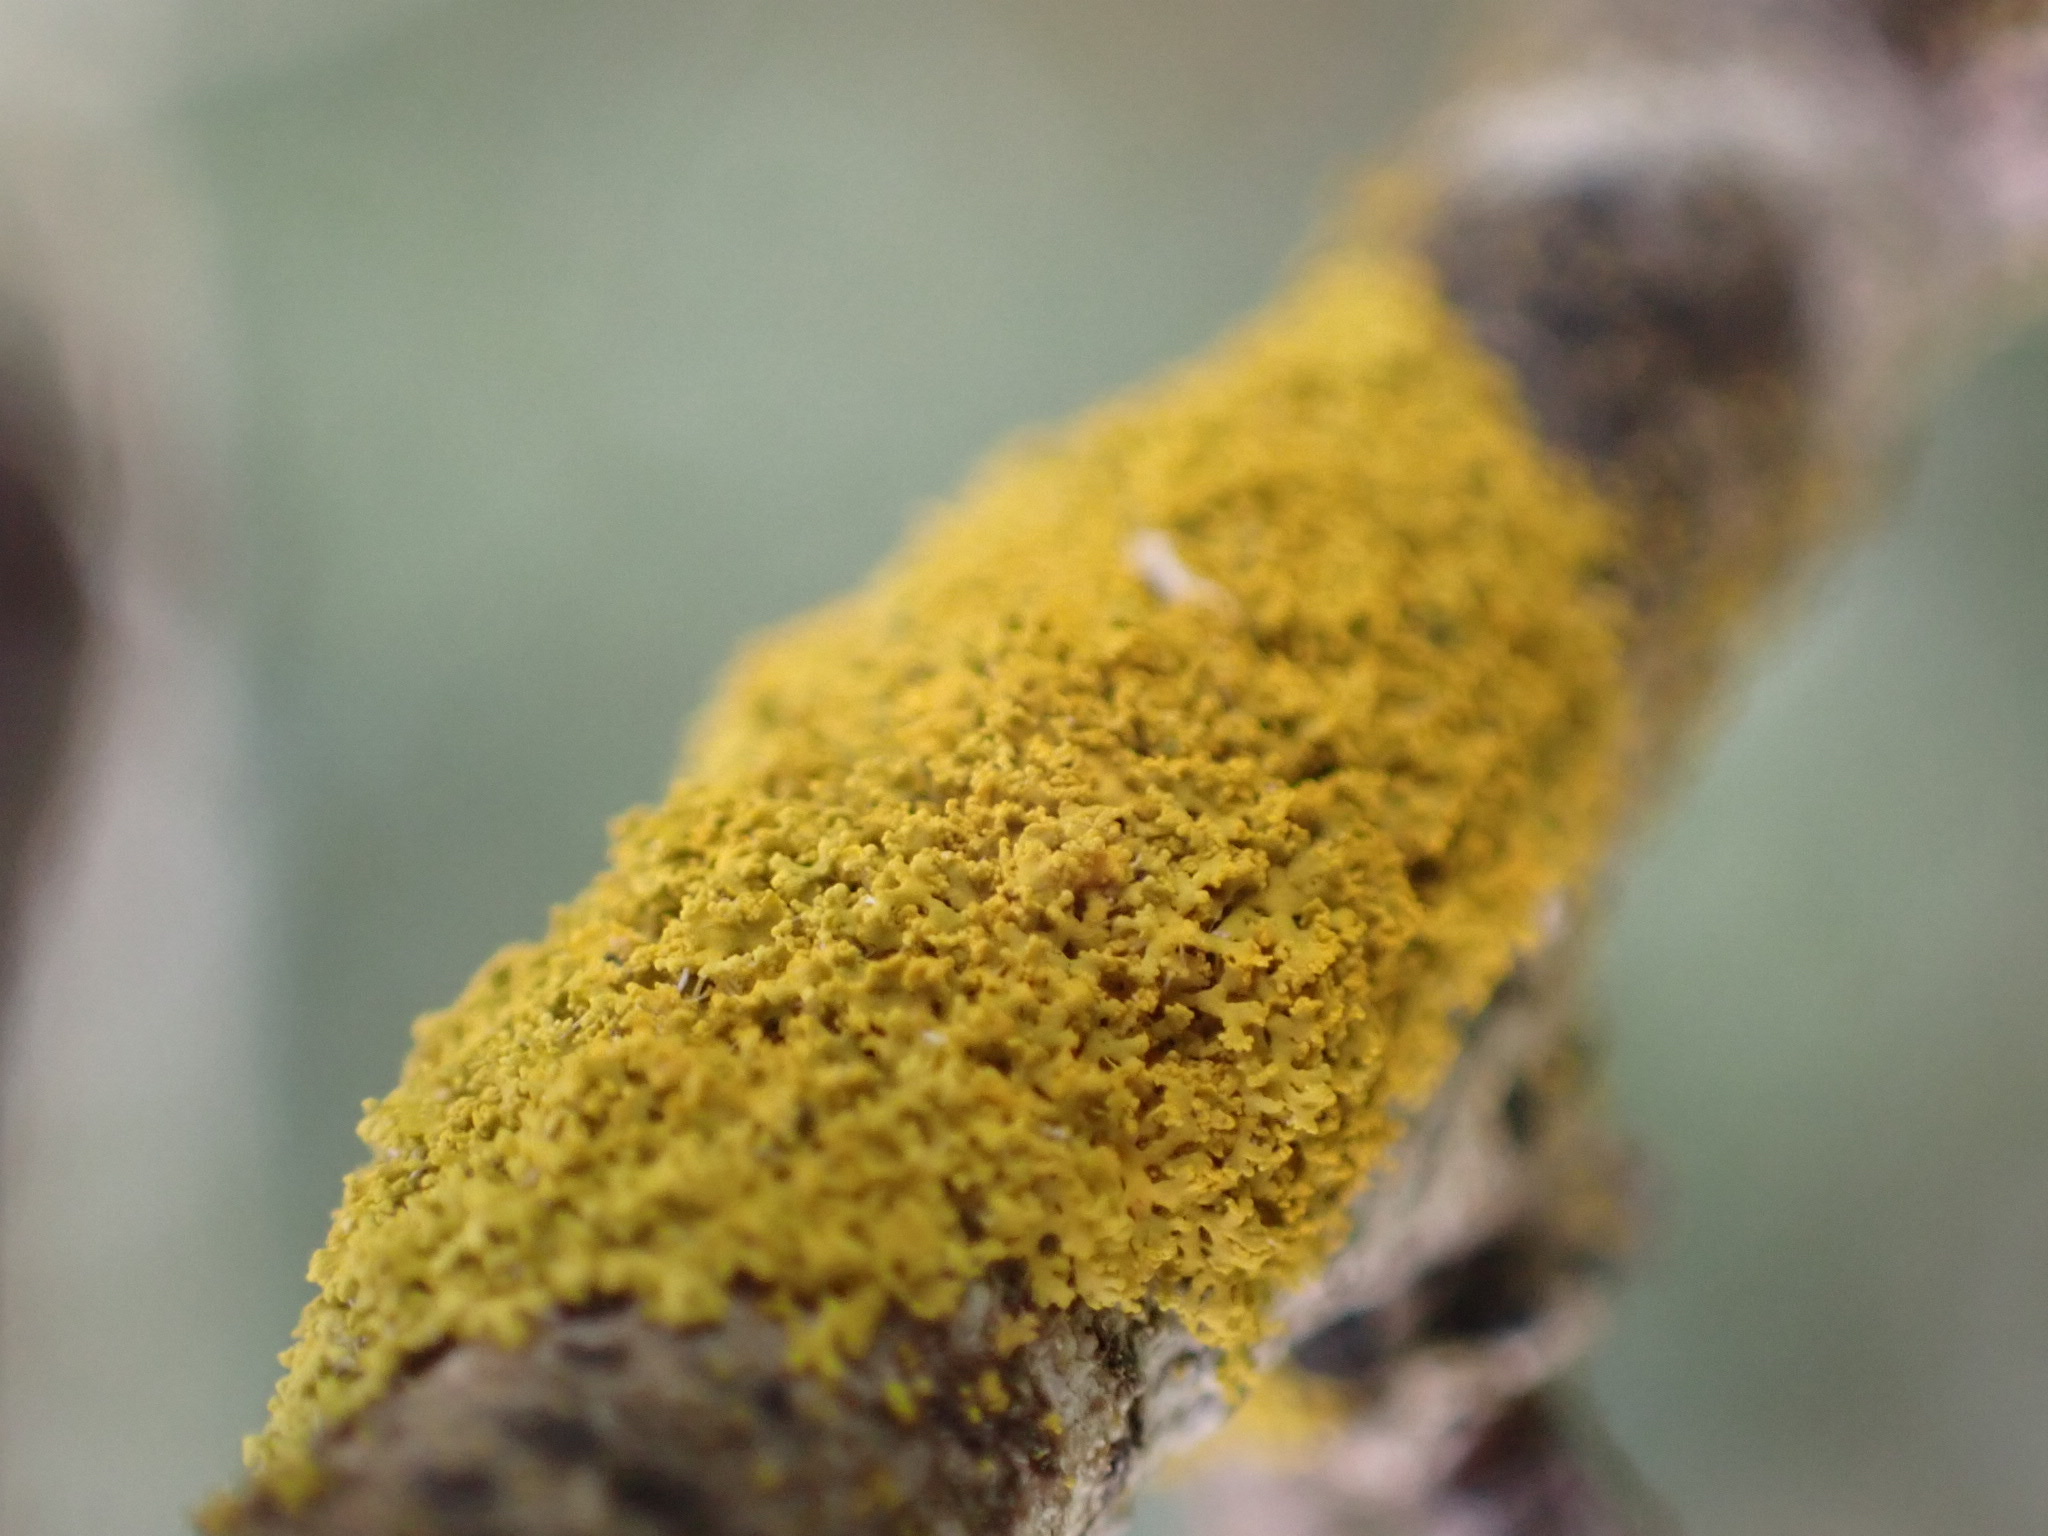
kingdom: Fungi
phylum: Ascomycota
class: Candelariomycetes
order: Candelariales
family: Candelariaceae
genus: Candelaria
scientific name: Candelaria
